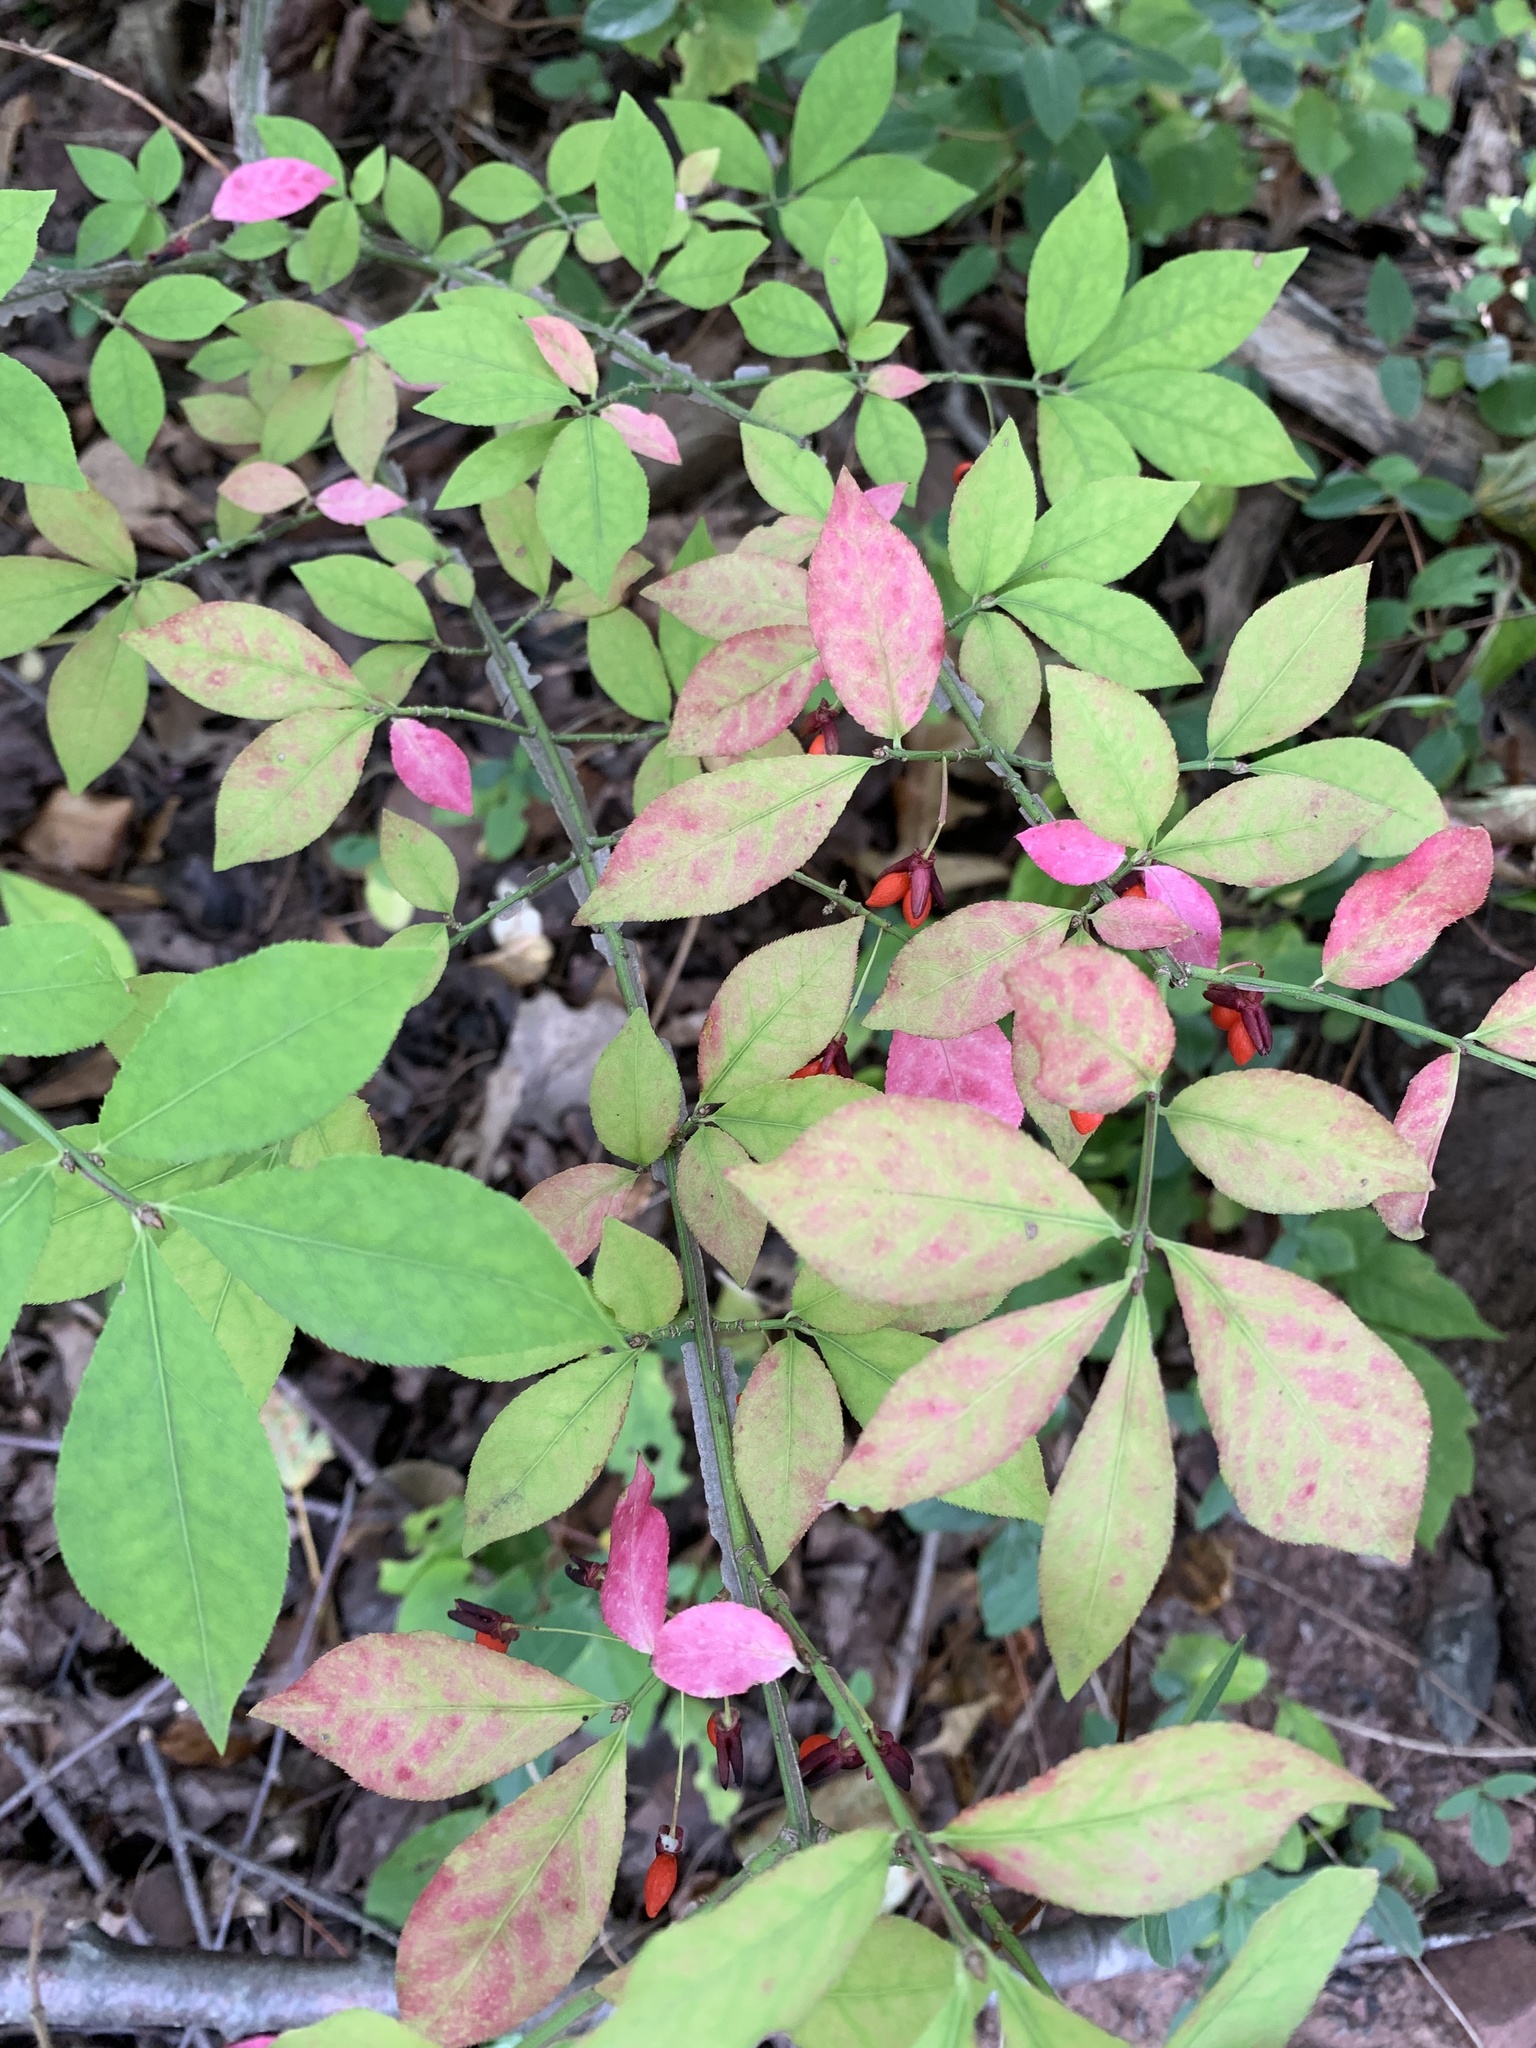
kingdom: Plantae
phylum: Tracheophyta
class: Magnoliopsida
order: Celastrales
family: Celastraceae
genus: Euonymus
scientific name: Euonymus alatus
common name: Winged euonymus
